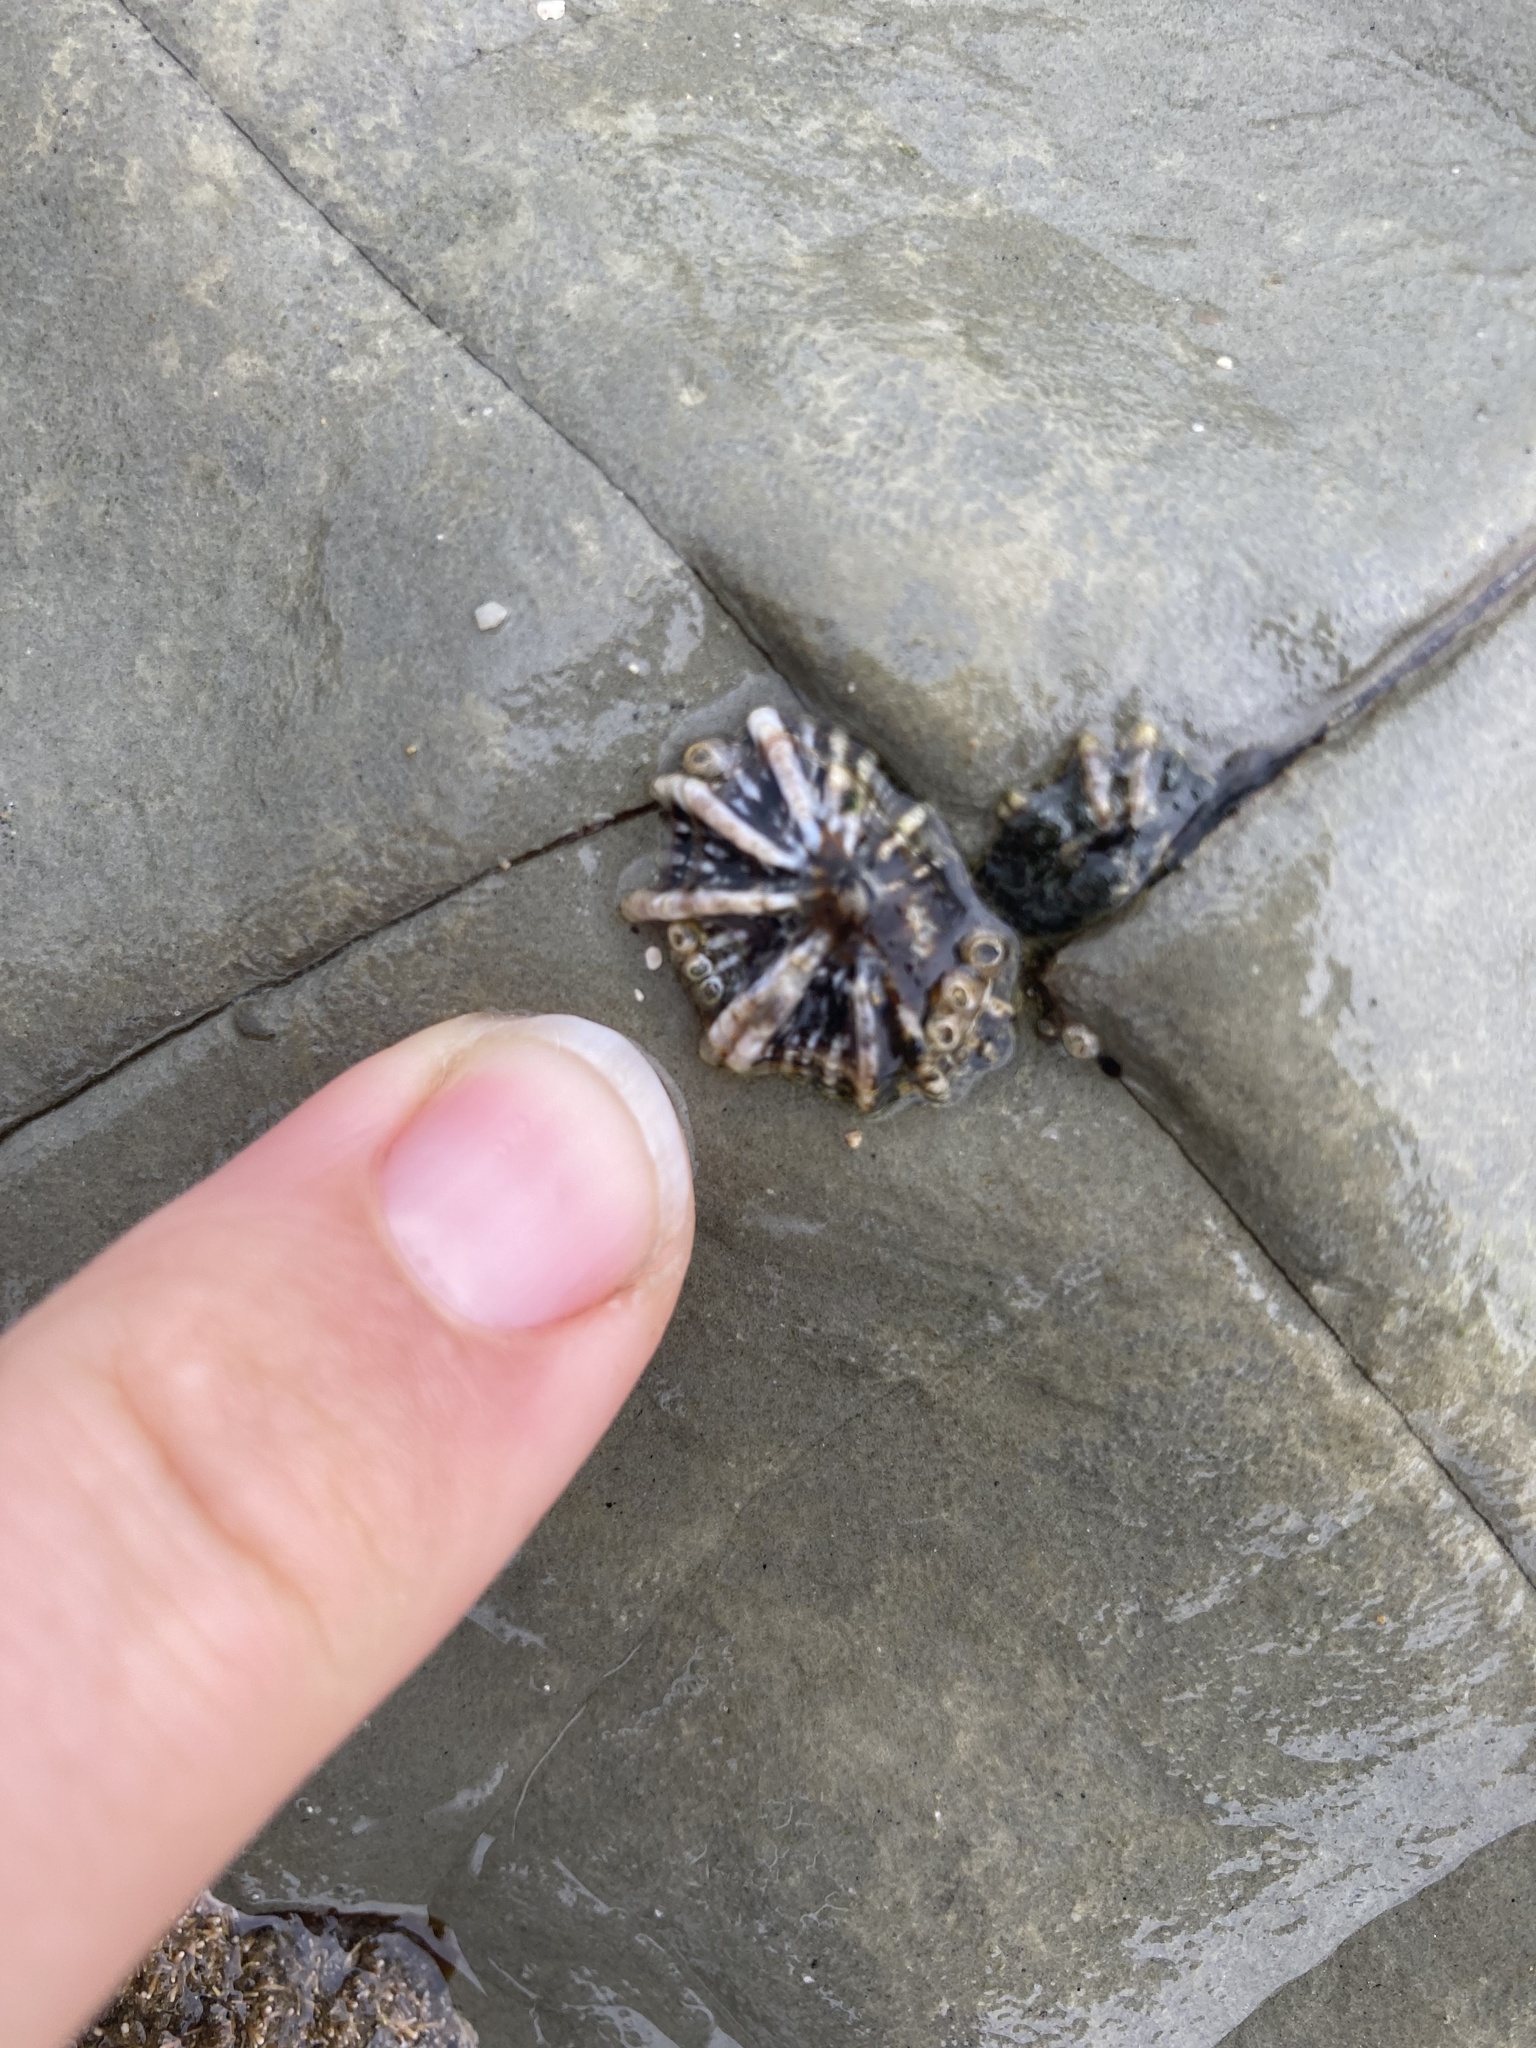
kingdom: Animalia
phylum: Mollusca
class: Gastropoda
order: Siphonariida
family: Siphonariidae
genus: Siphonaria
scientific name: Siphonaria australis
